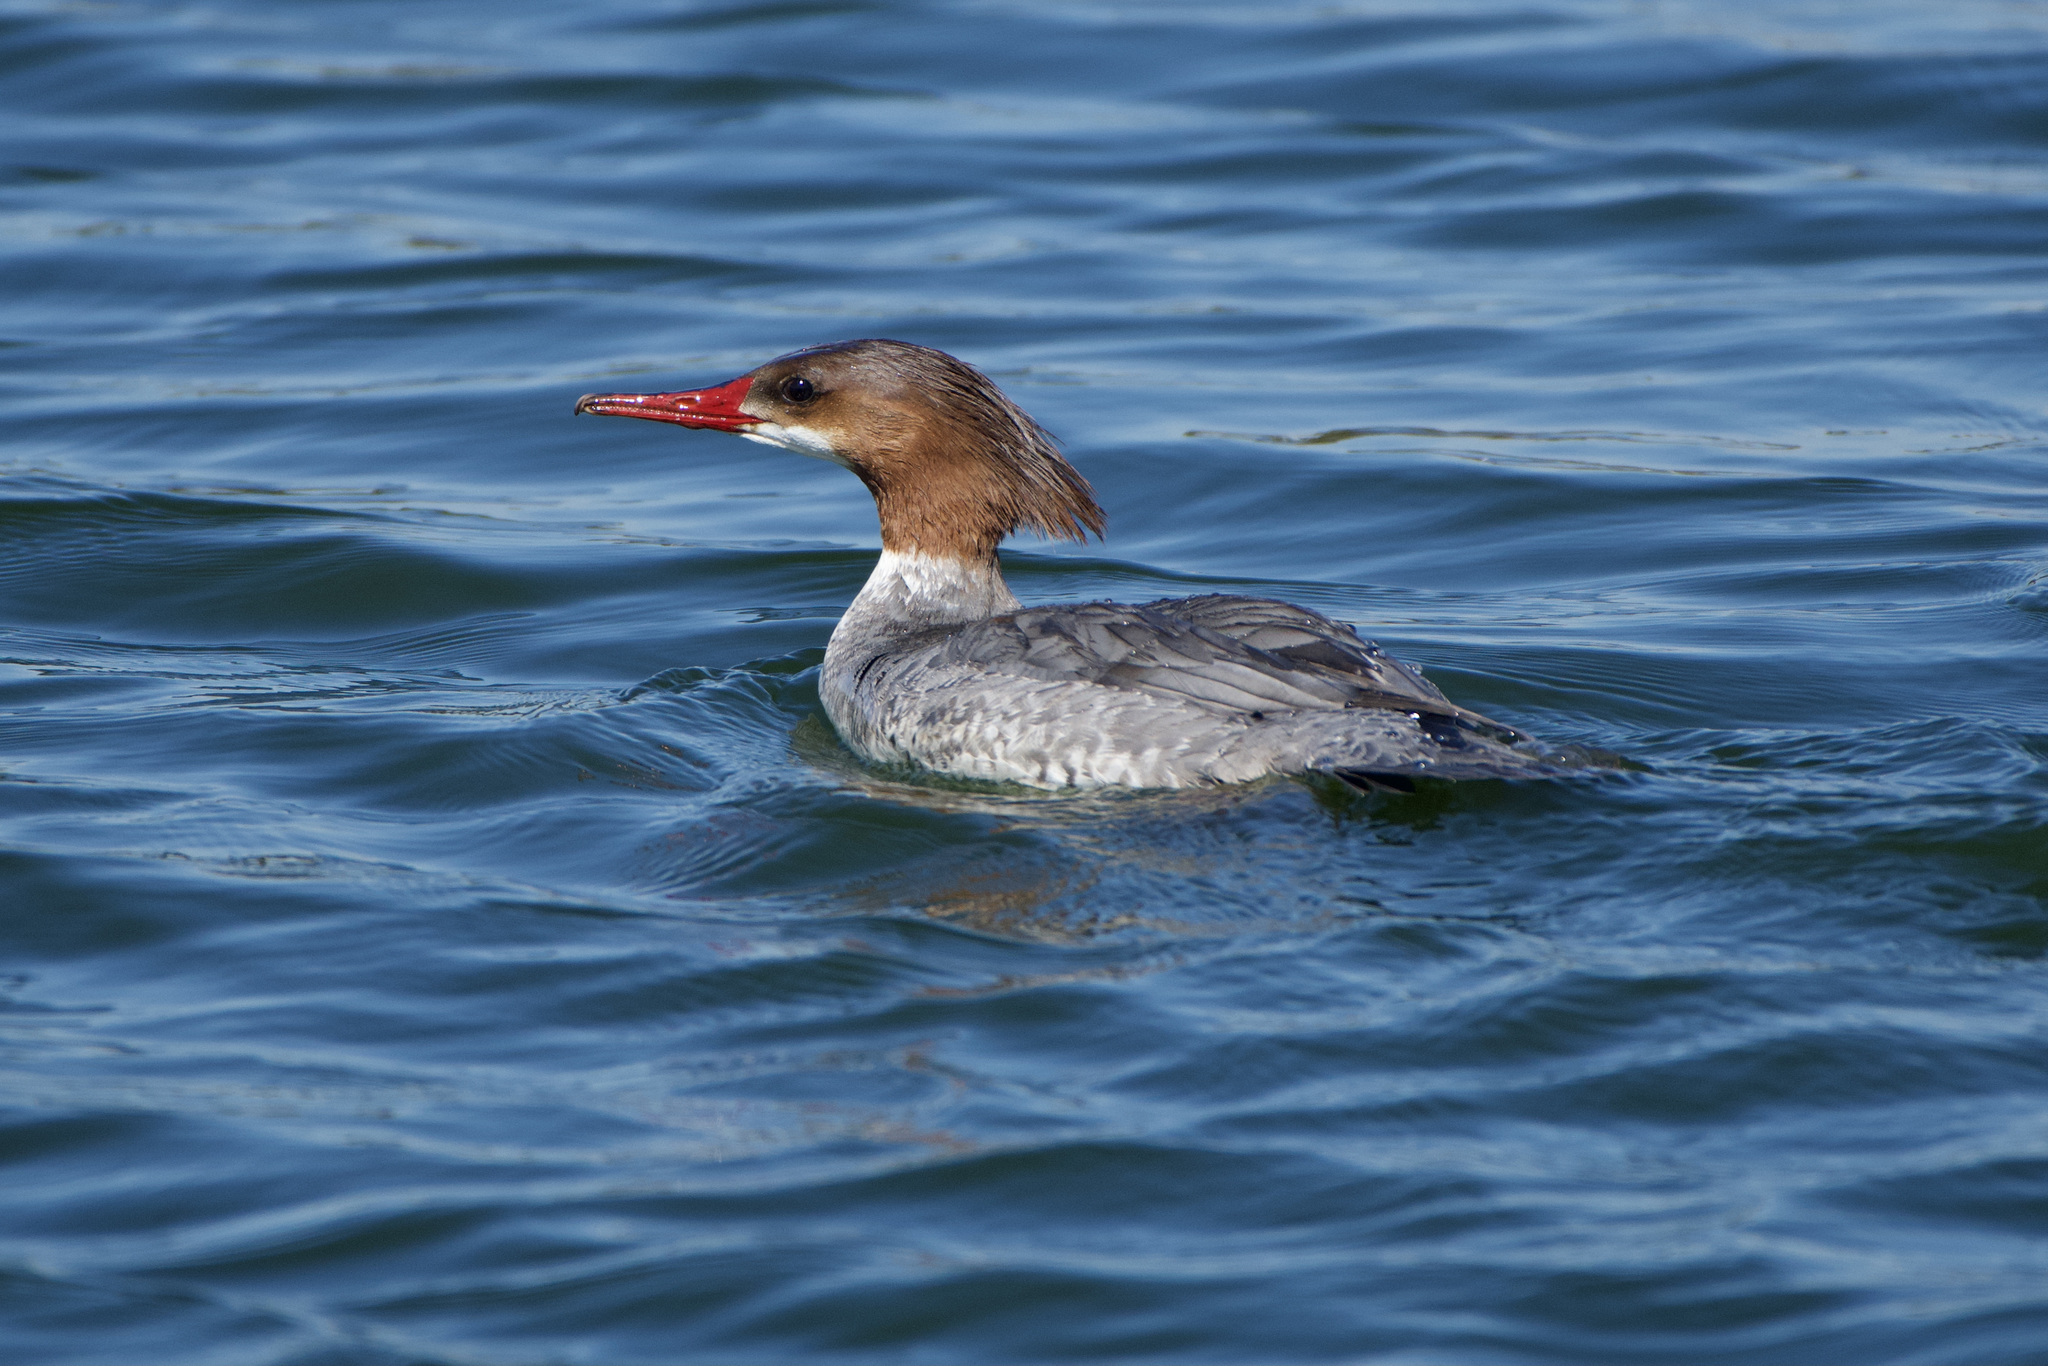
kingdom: Animalia
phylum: Chordata
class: Aves
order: Anseriformes
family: Anatidae
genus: Mergus
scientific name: Mergus merganser
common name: Common merganser
